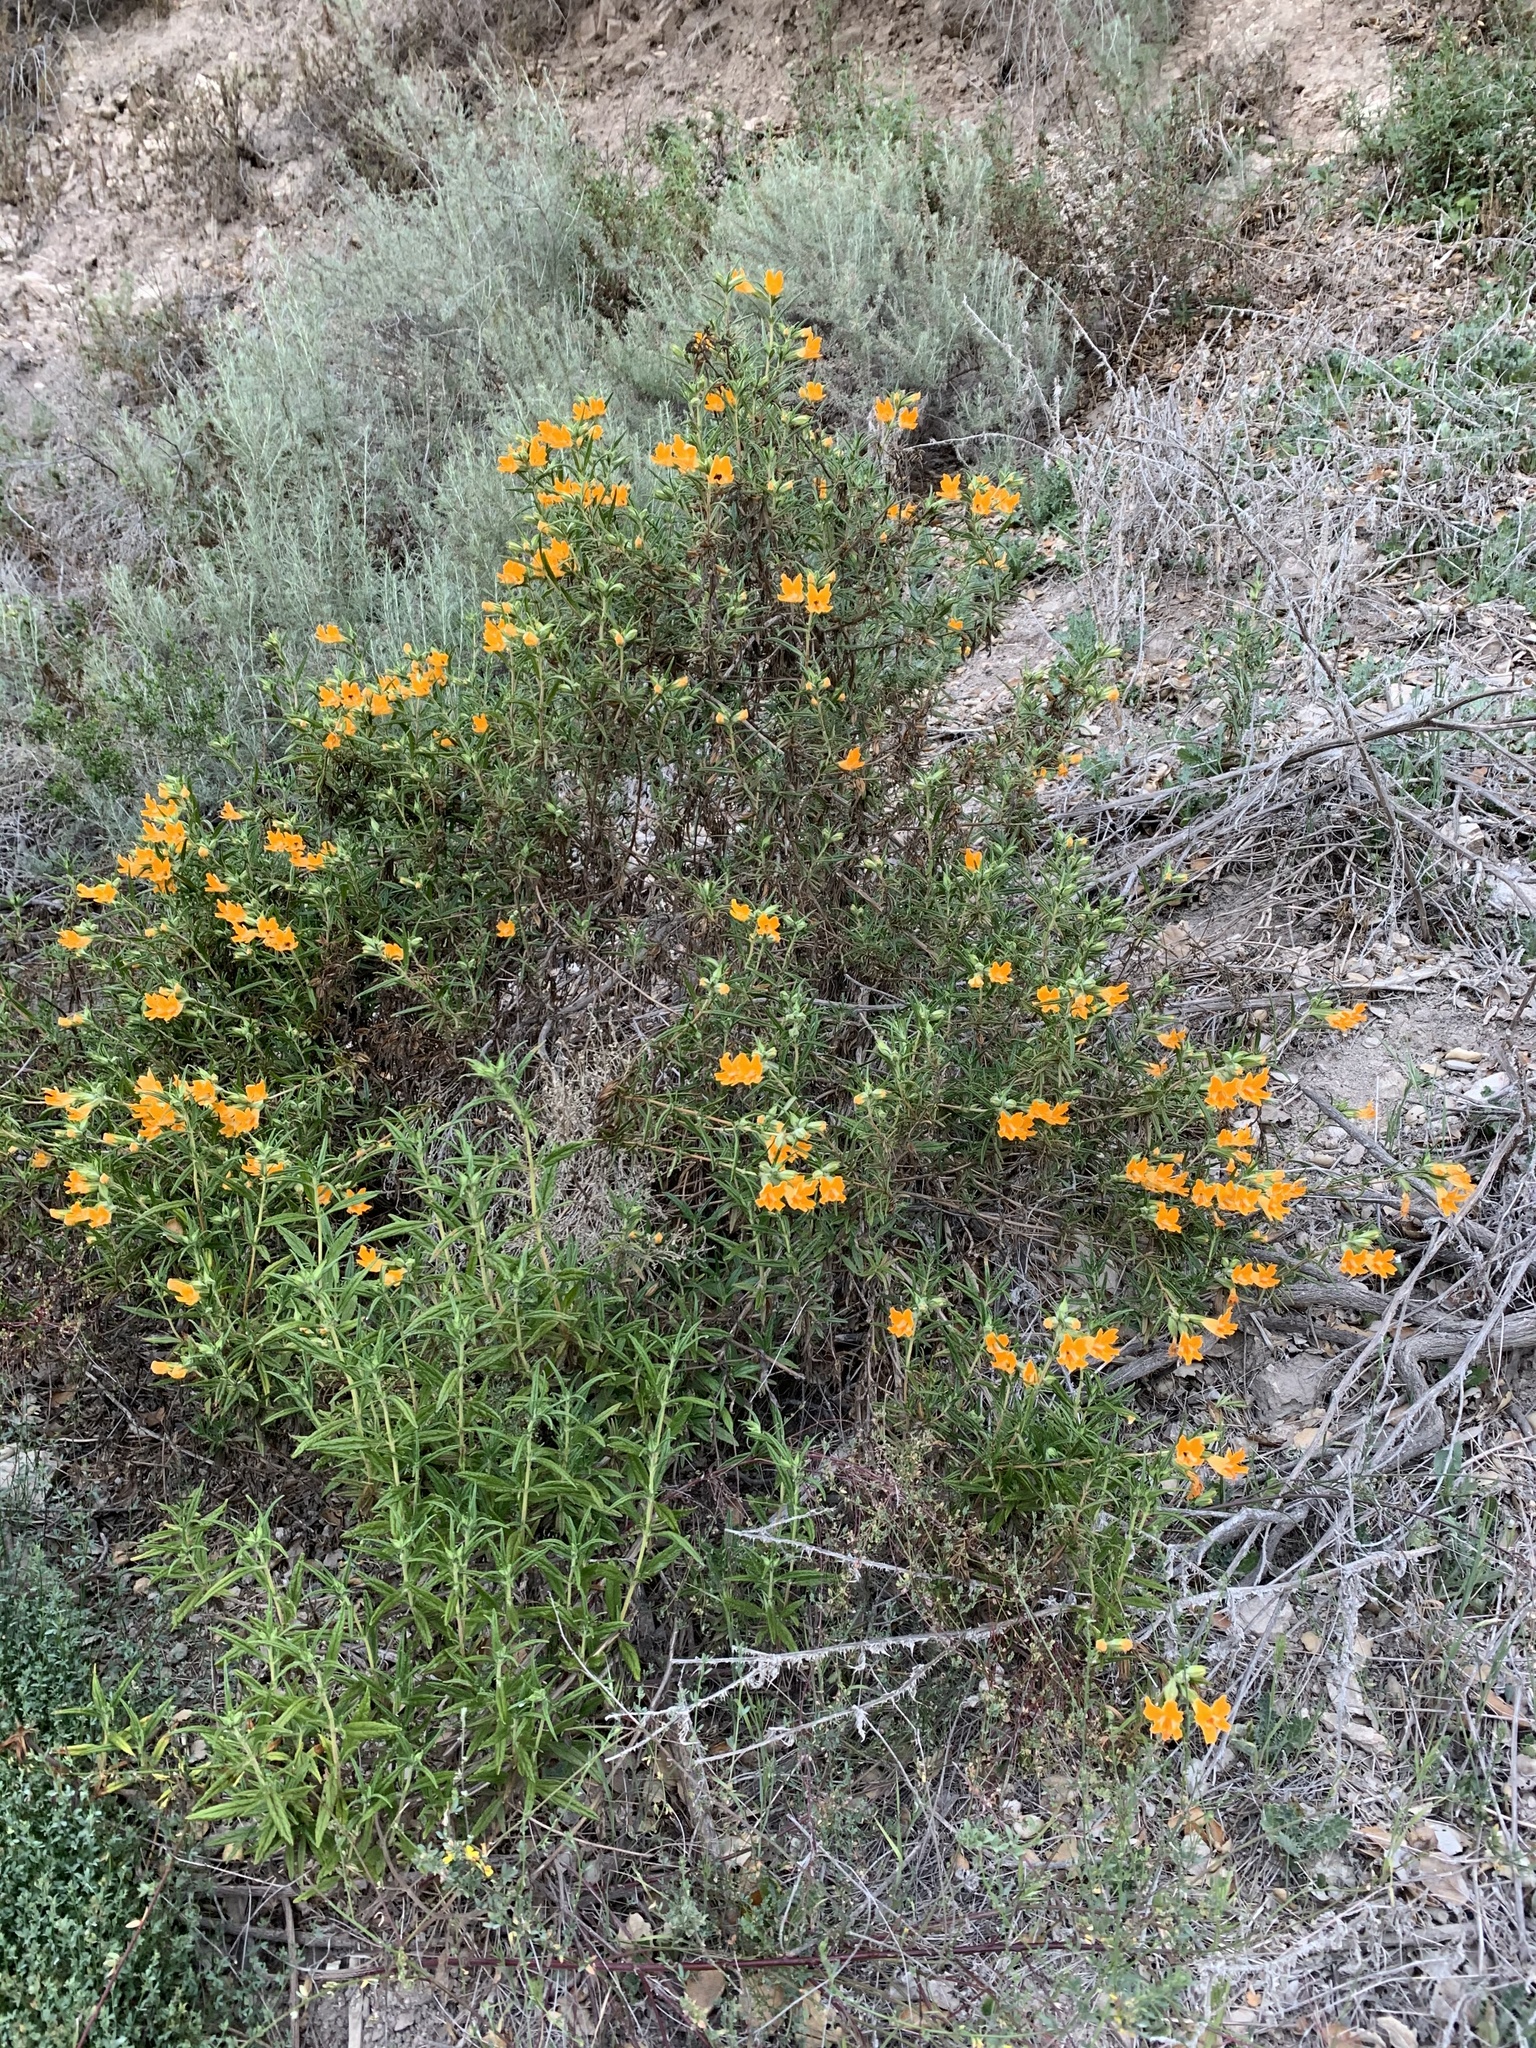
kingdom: Plantae
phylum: Tracheophyta
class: Magnoliopsida
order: Lamiales
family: Phrymaceae
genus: Diplacus
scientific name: Diplacus longiflorus
